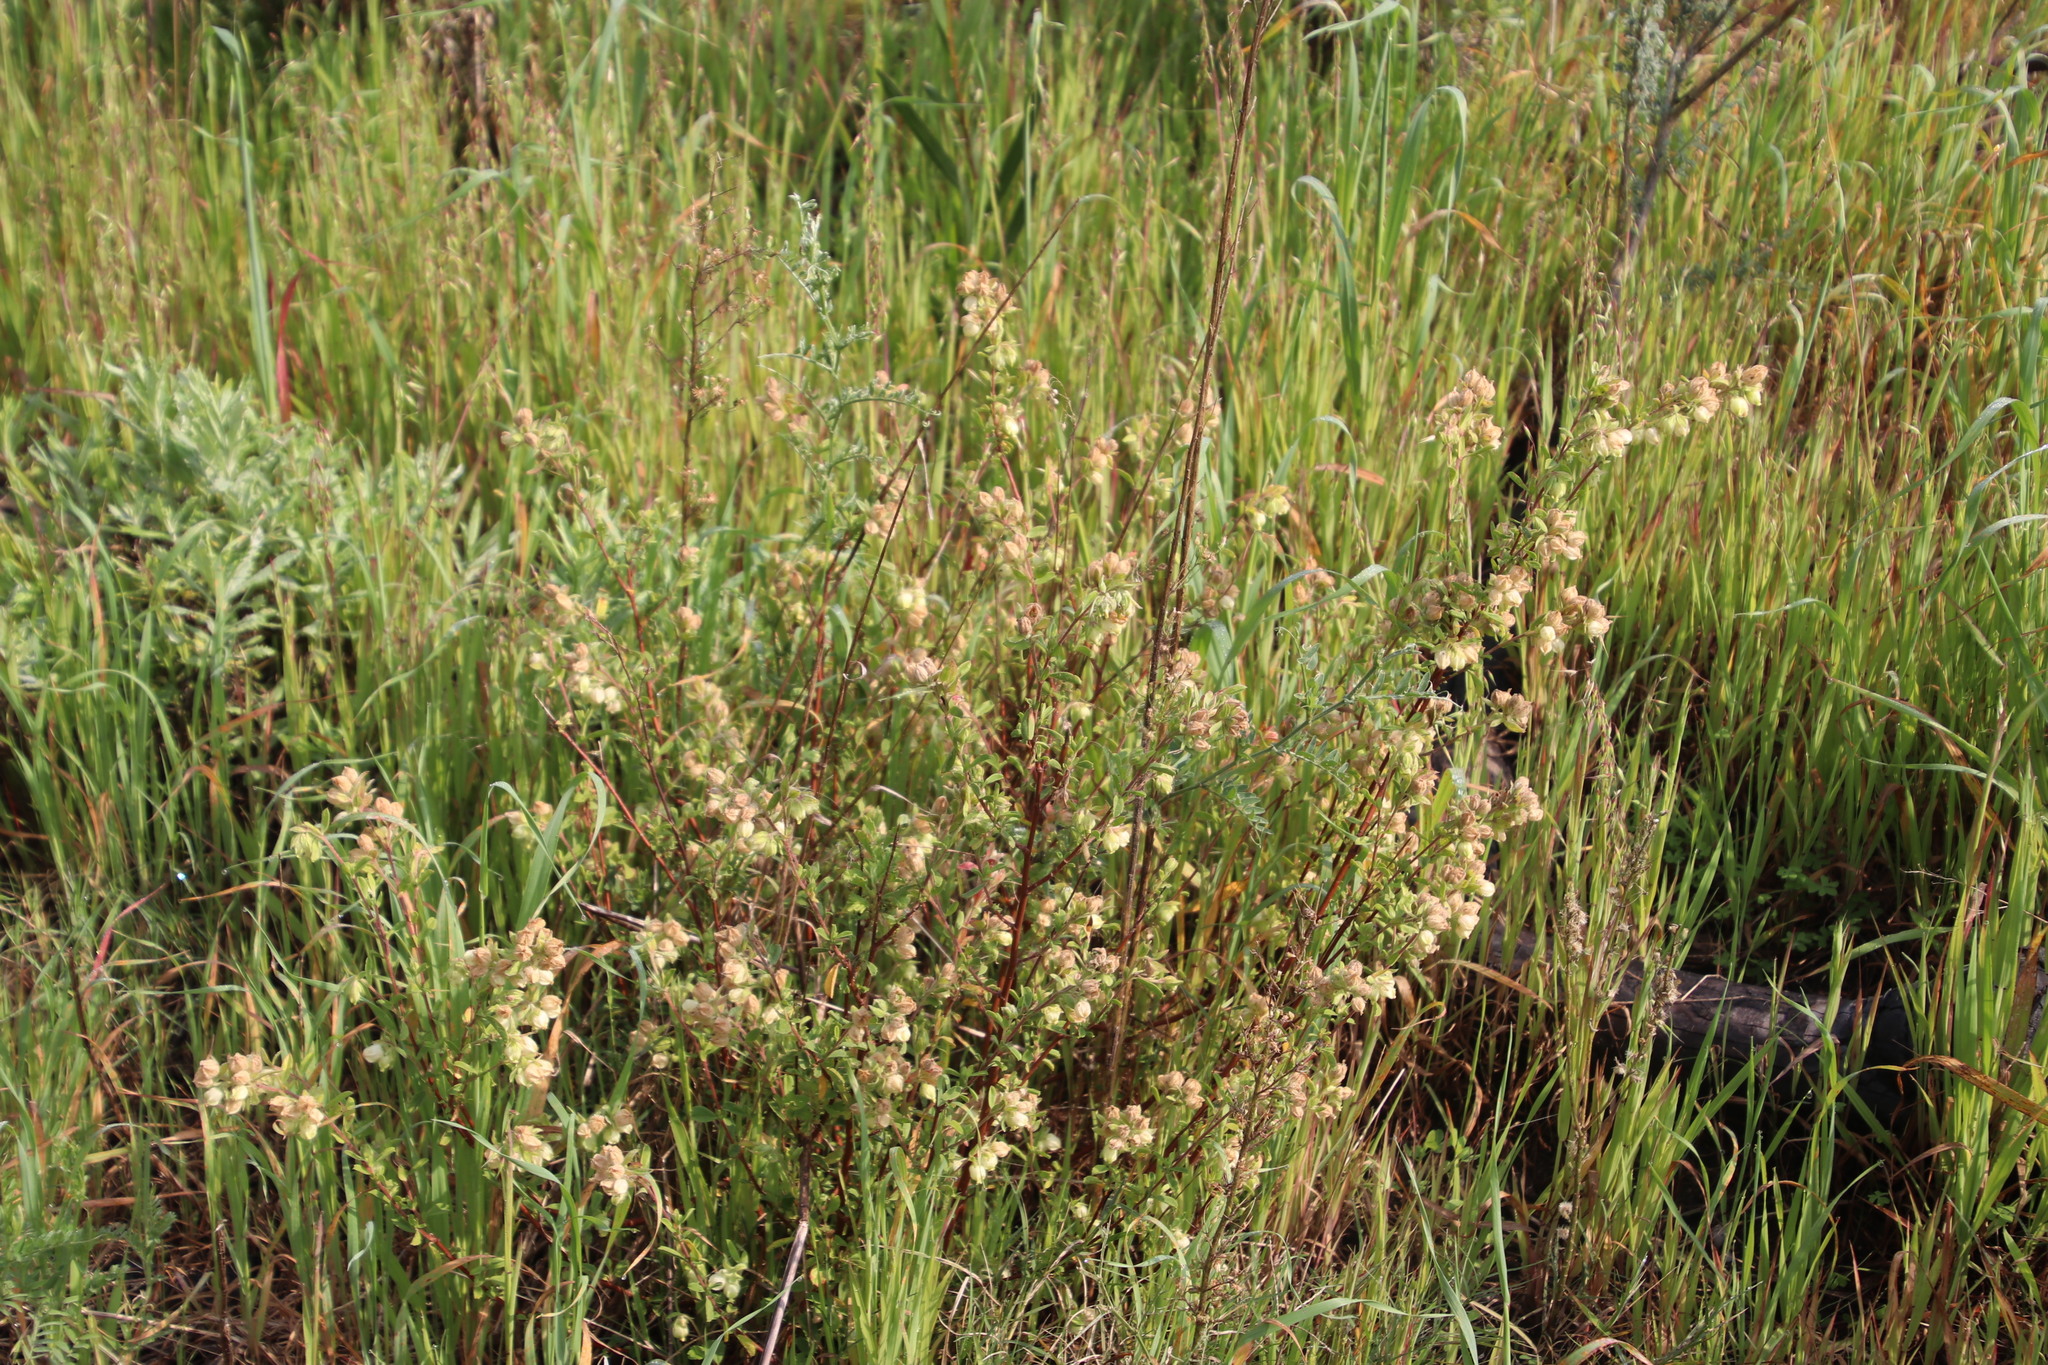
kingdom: Plantae
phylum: Tracheophyta
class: Magnoliopsida
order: Malvales
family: Malvaceae
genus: Hermannia
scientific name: Hermannia hyssopifolia
